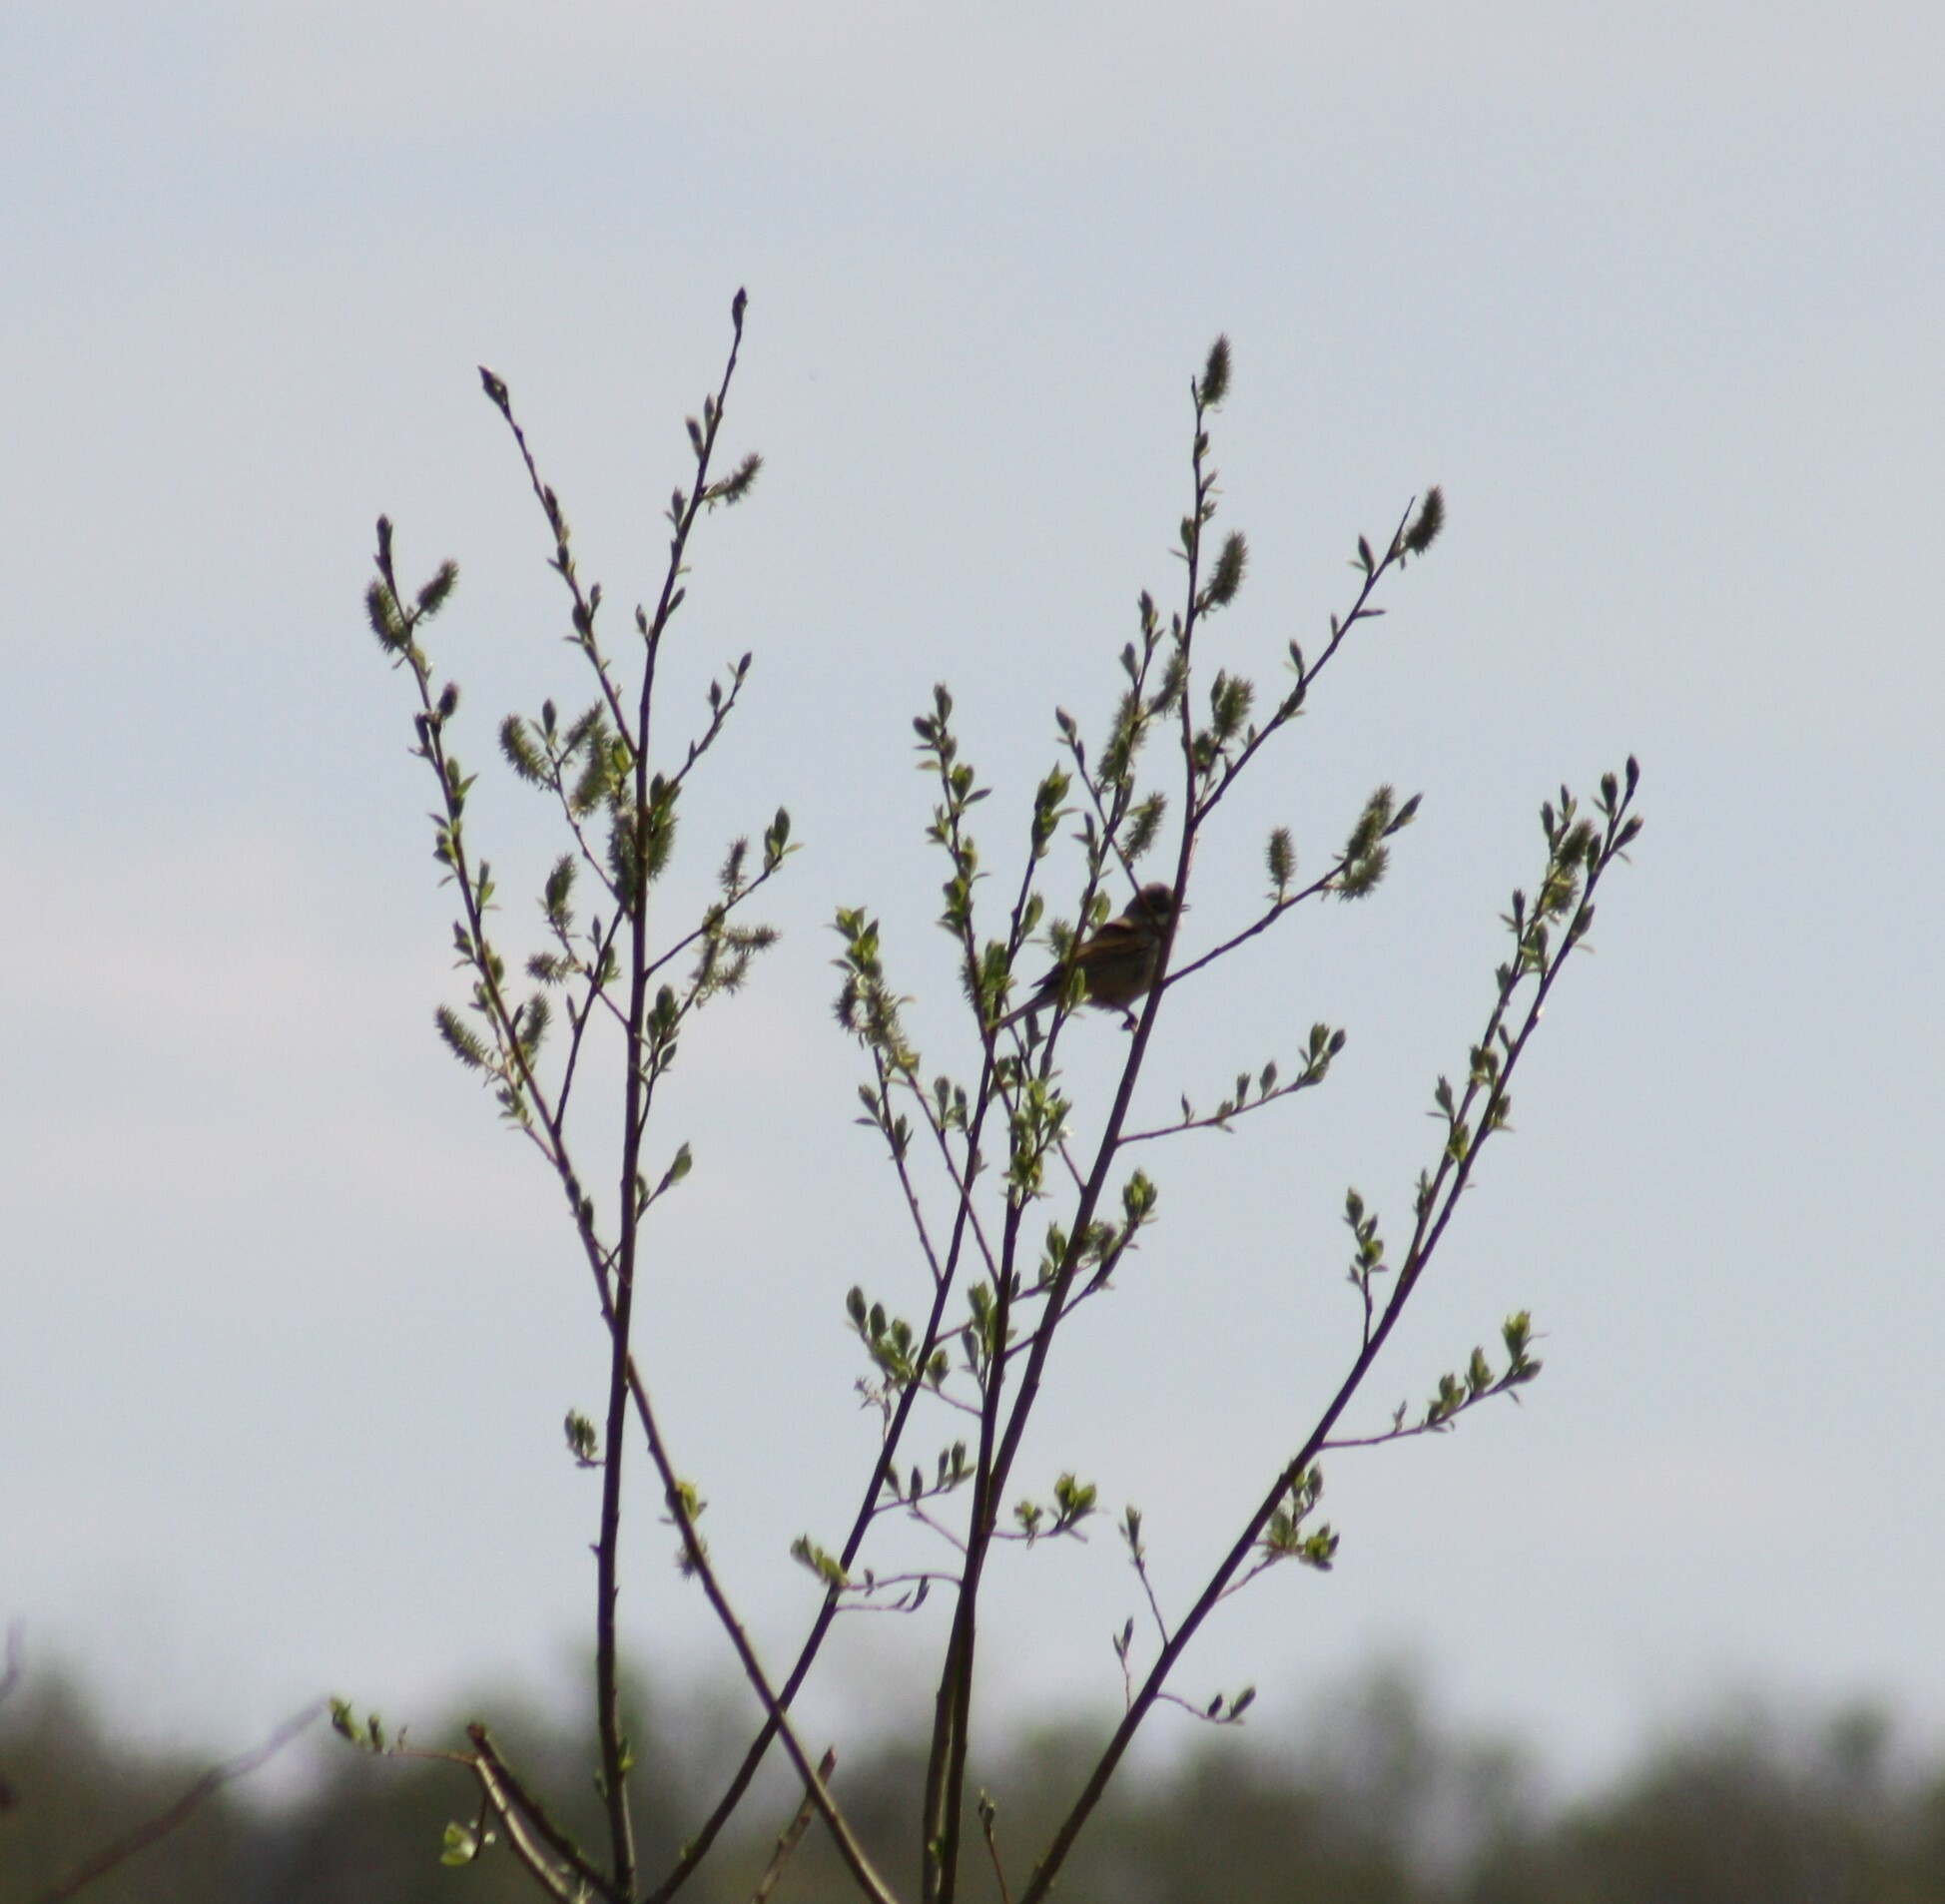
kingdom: Animalia
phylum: Chordata
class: Aves
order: Passeriformes
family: Sylviidae
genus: Sylvia
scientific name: Sylvia communis
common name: Common whitethroat
